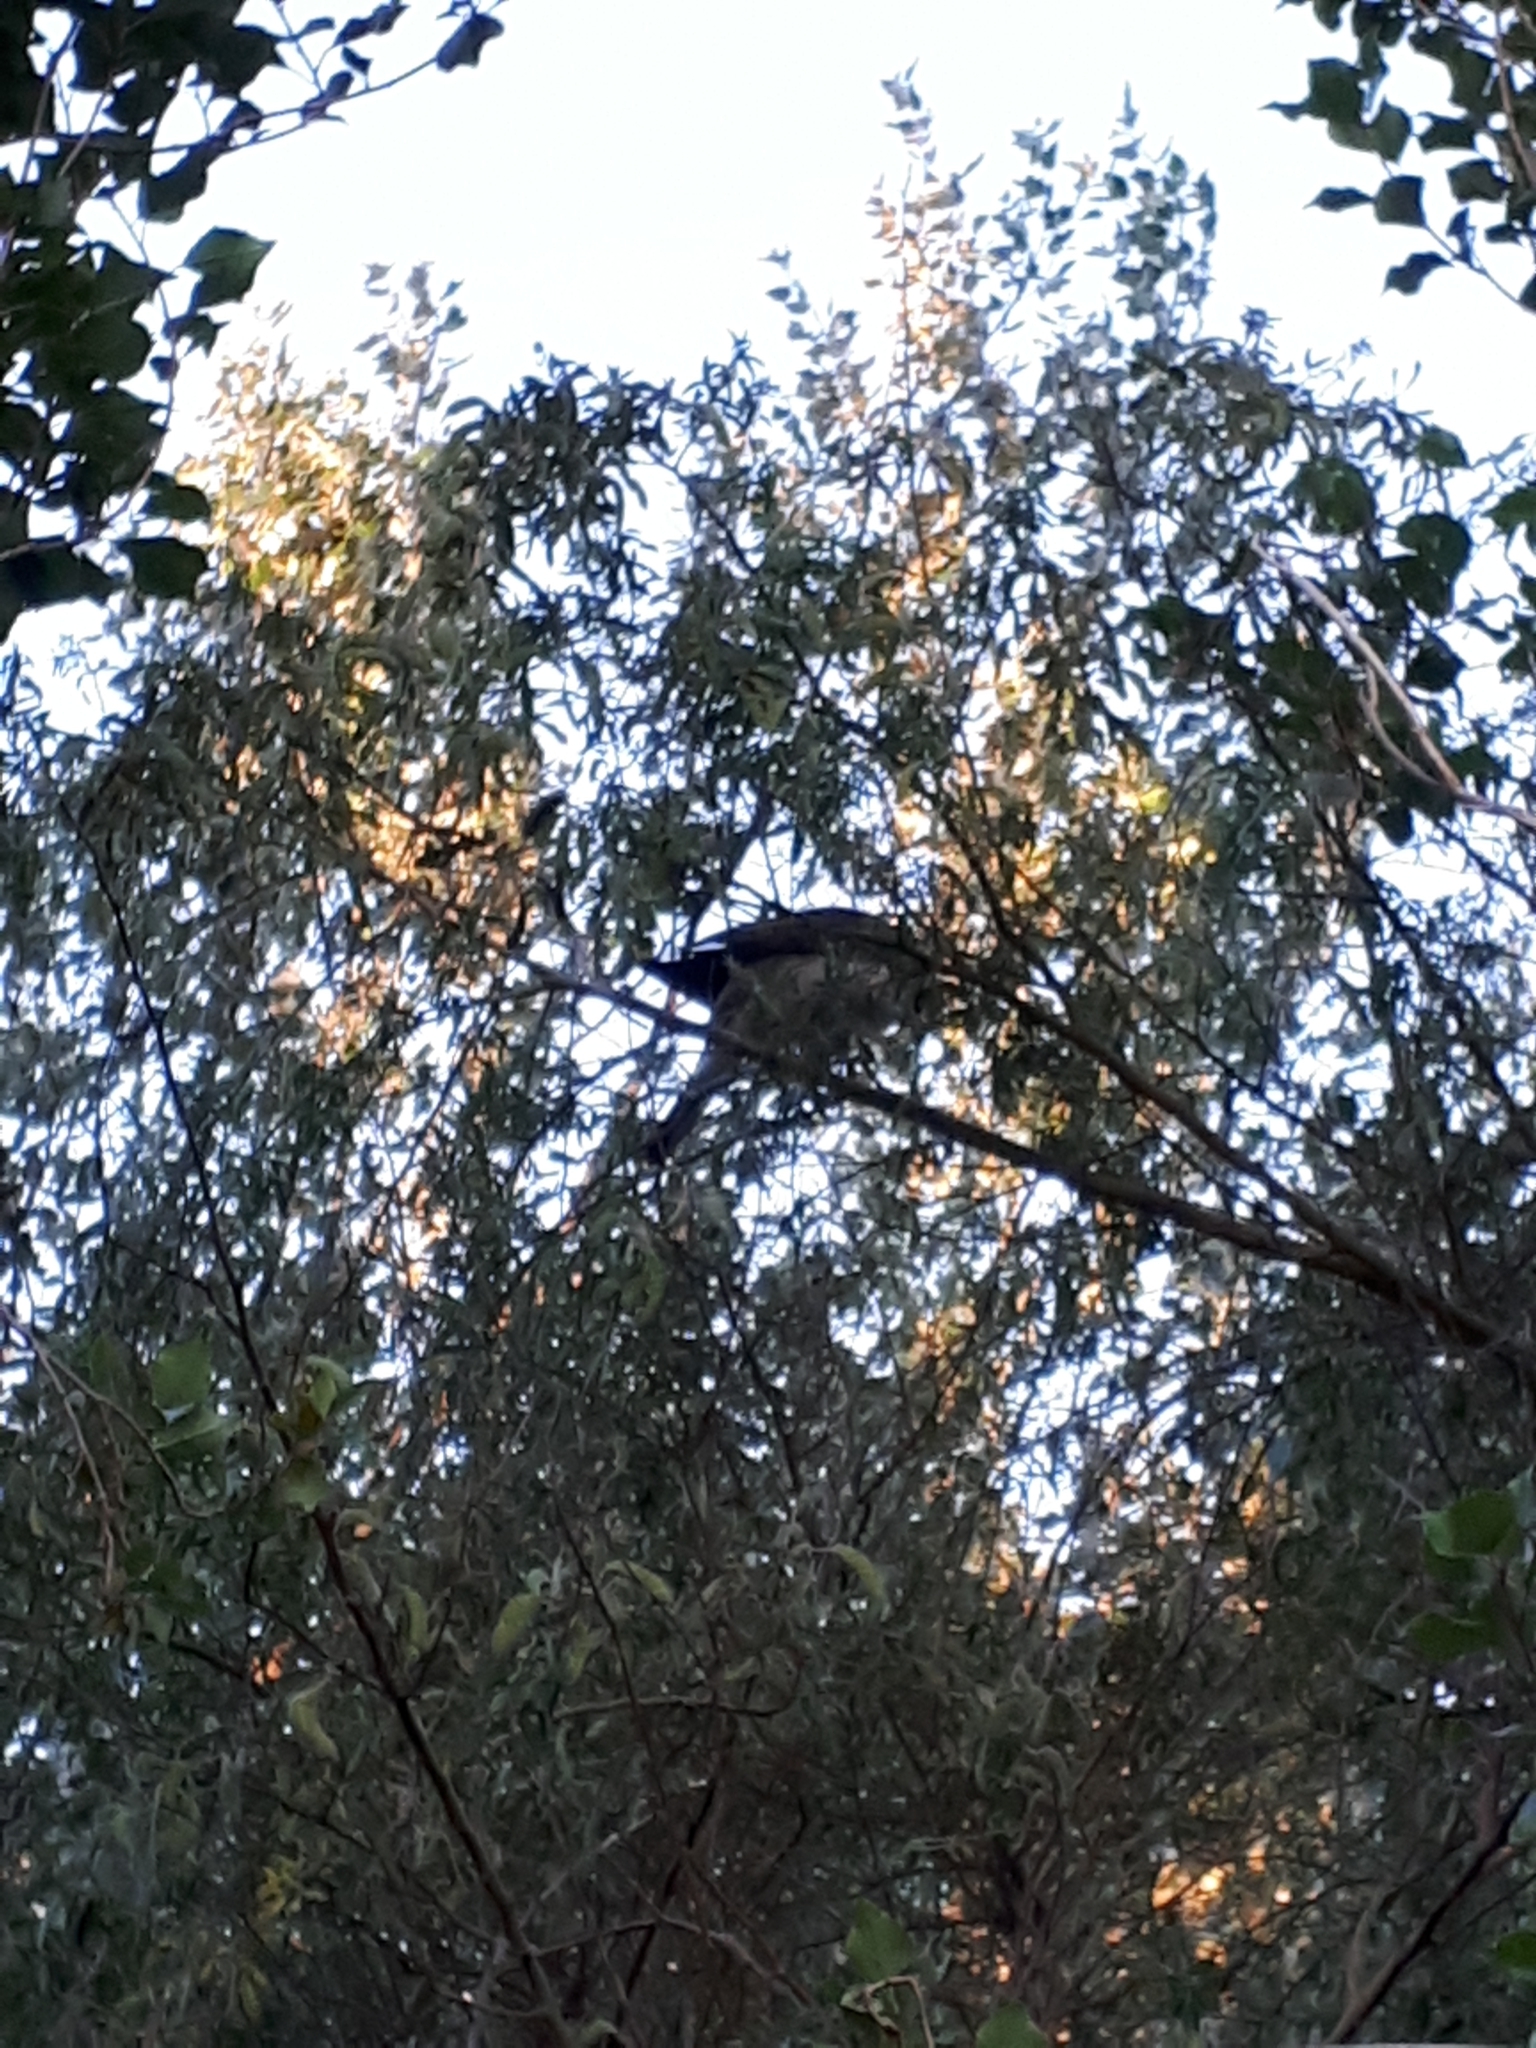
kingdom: Animalia
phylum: Chordata
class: Aves
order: Columbiformes
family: Columbidae
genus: Hemiphaga
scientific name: Hemiphaga novaeseelandiae
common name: New zealand pigeon
